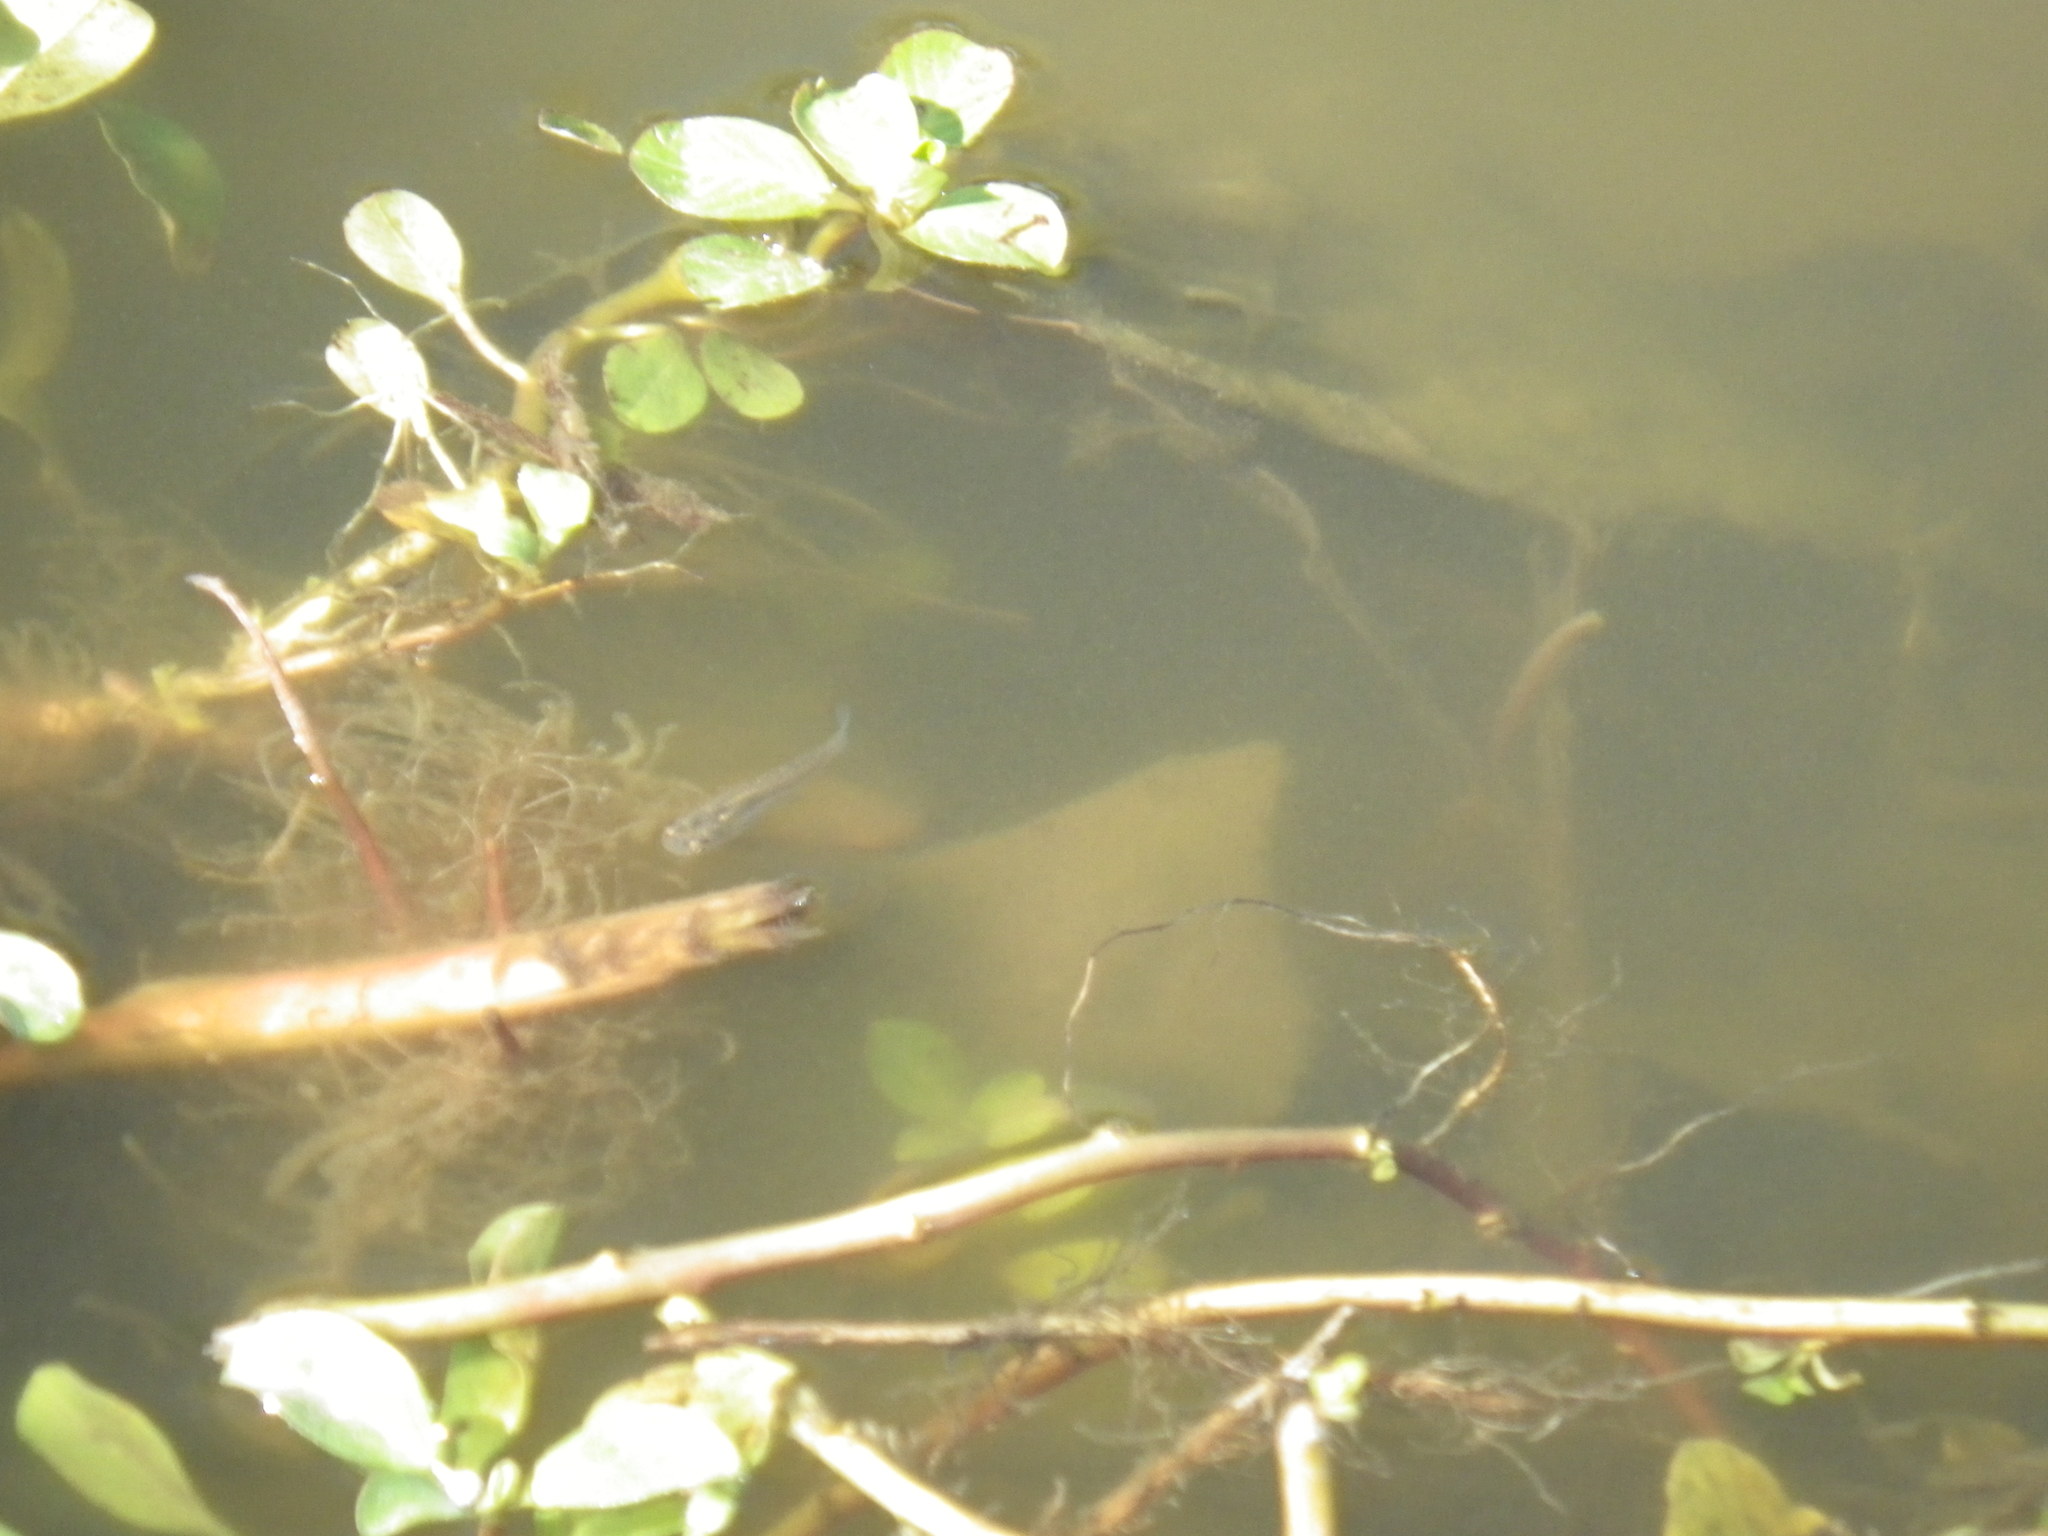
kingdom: Animalia
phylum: Chordata
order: Cyprinodontiformes
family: Poeciliidae
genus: Gambusia
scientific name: Gambusia affinis
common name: Mosquitofish
